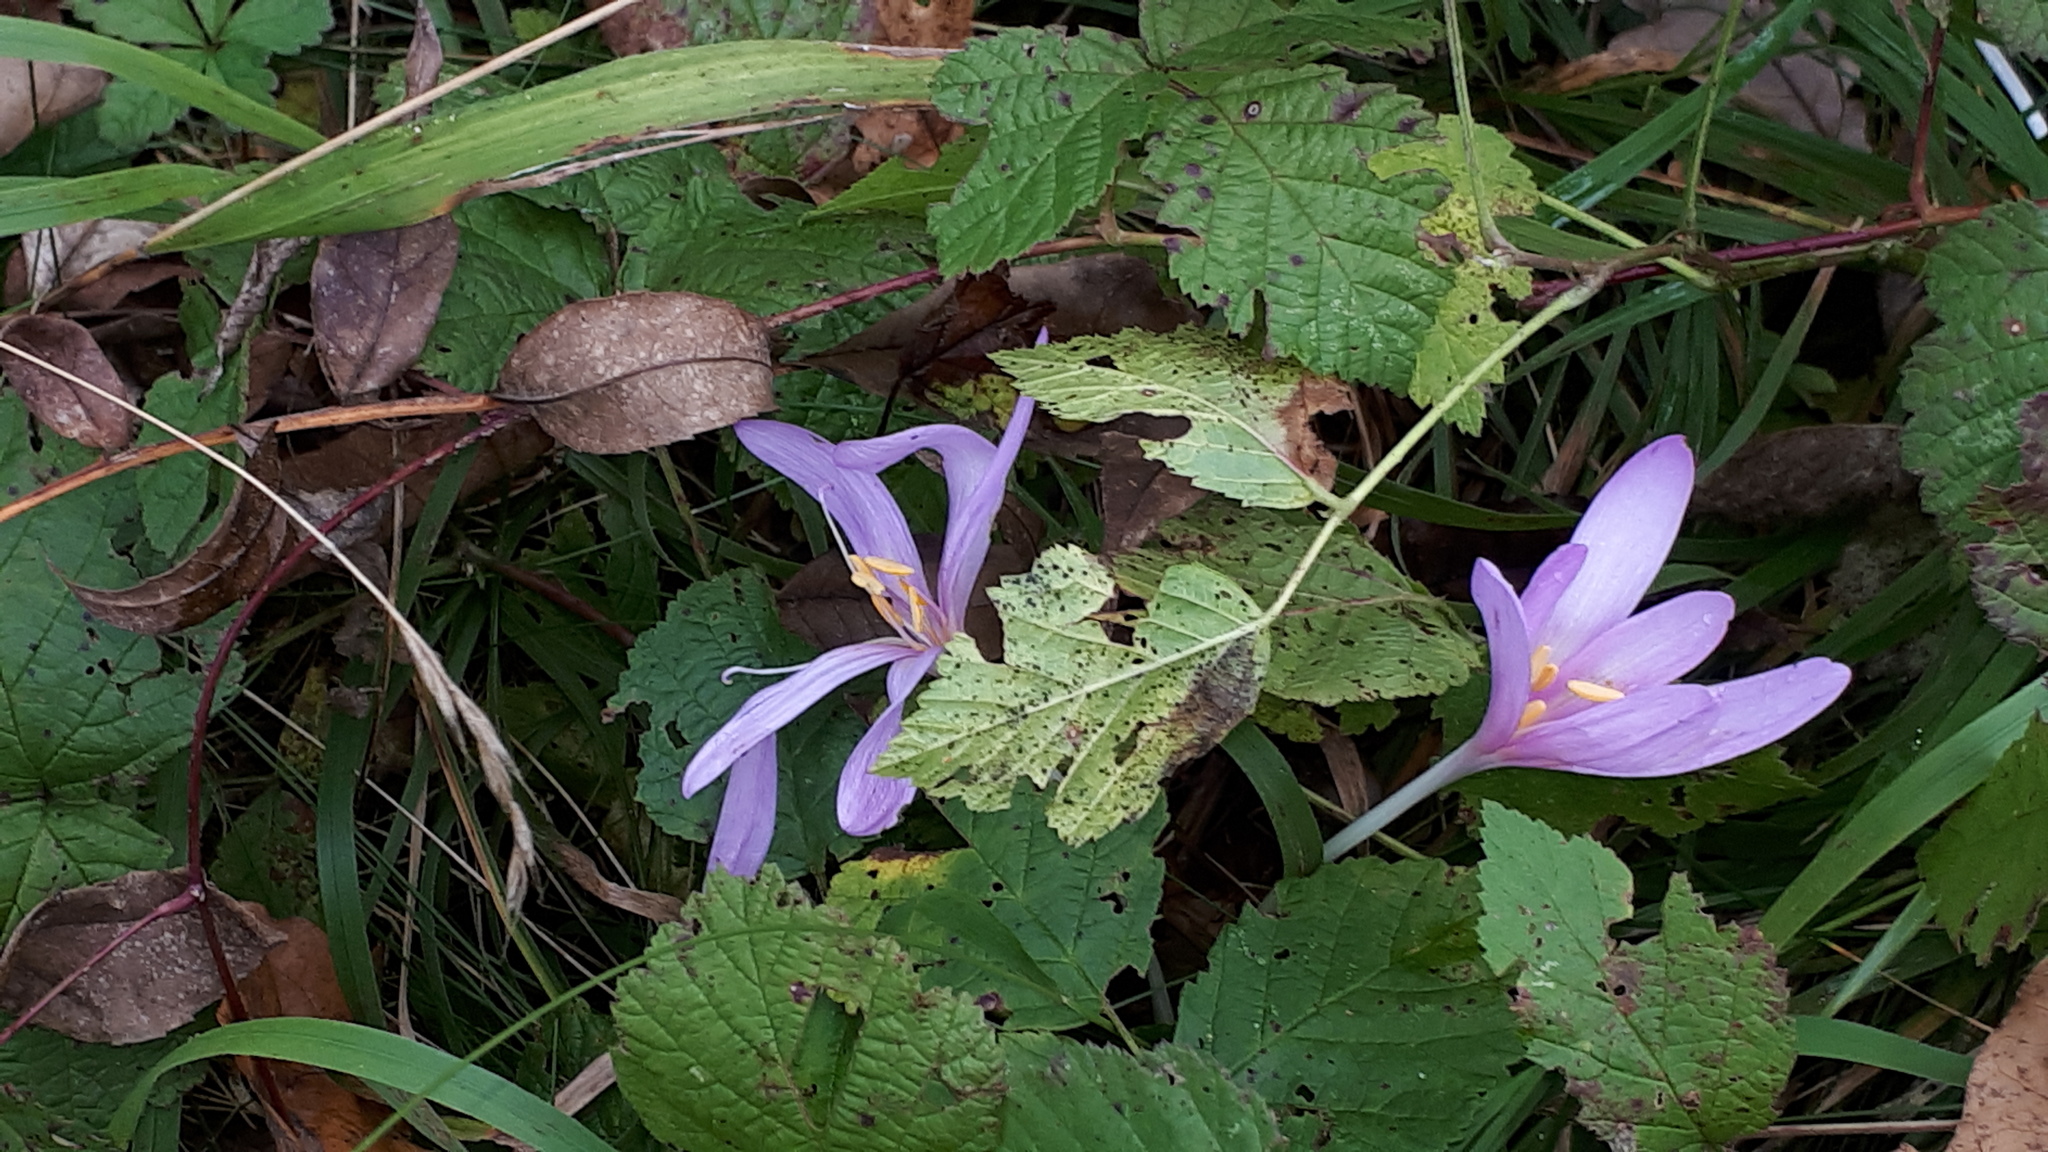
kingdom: Plantae
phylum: Tracheophyta
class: Liliopsida
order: Liliales
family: Colchicaceae
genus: Colchicum
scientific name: Colchicum autumnale
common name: Autumn crocus
